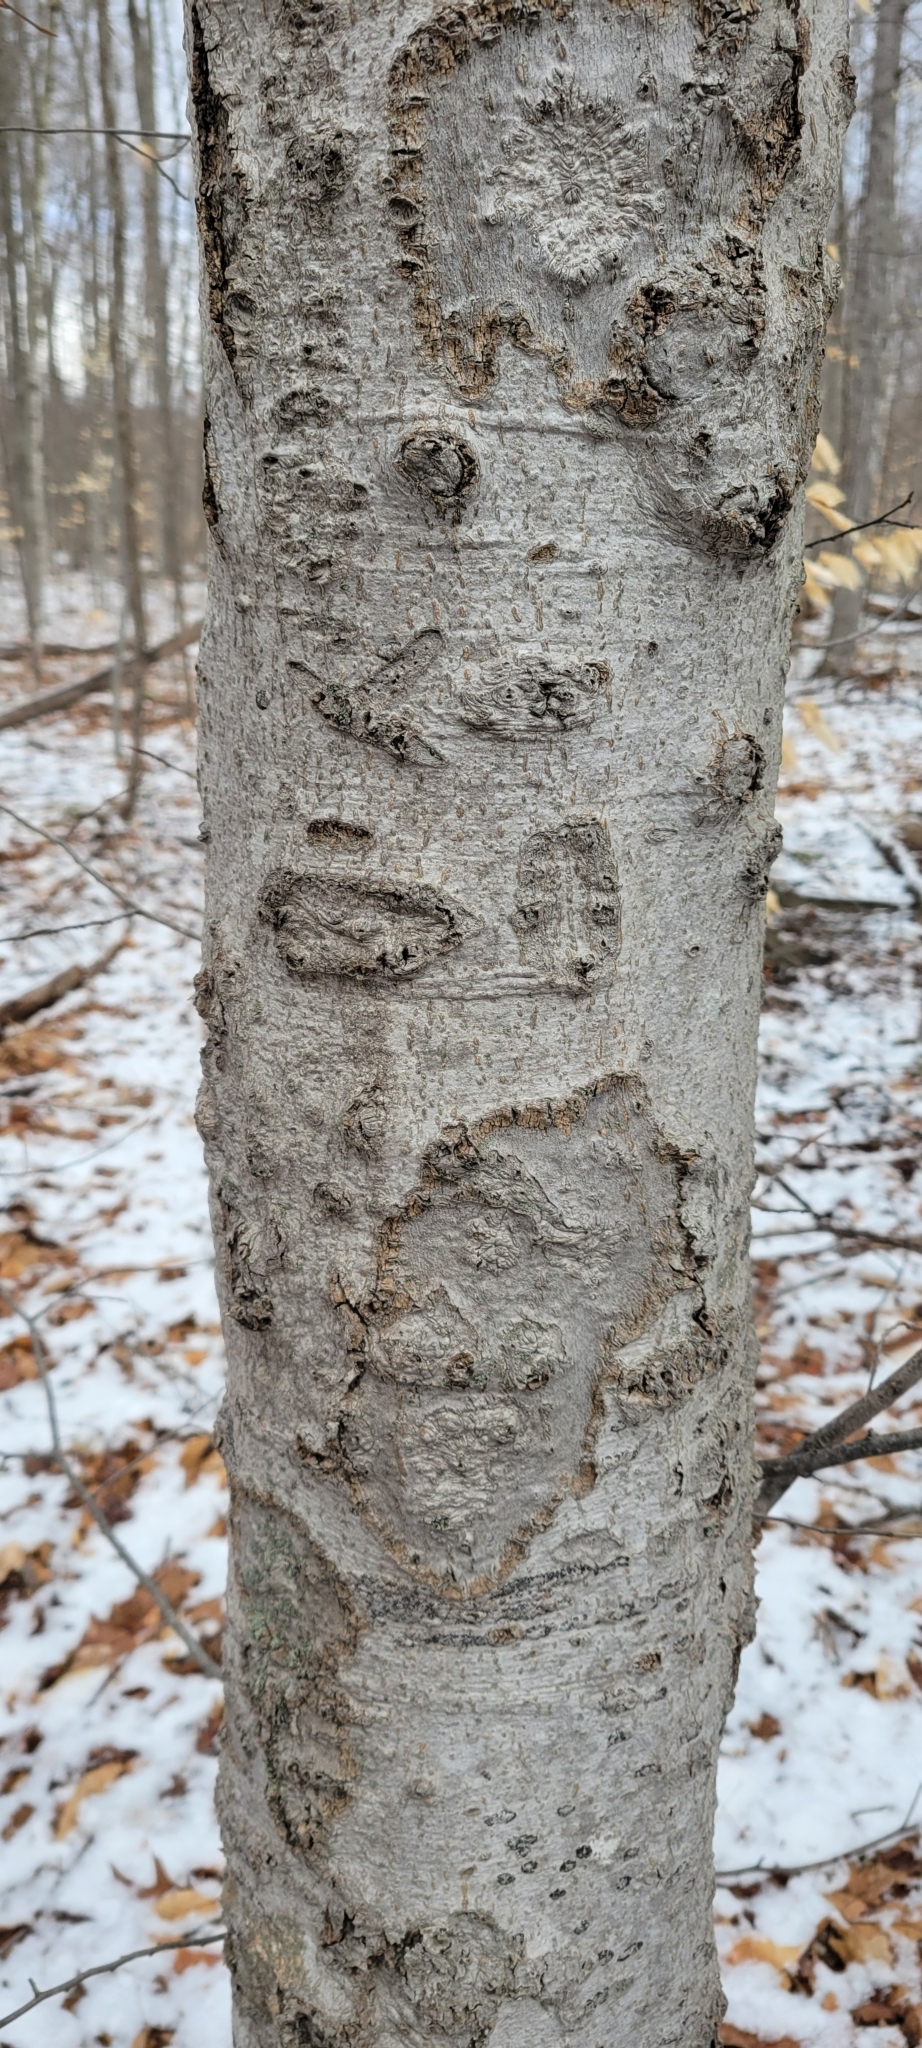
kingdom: Fungi
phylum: Ascomycota
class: Sordariomycetes
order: Hypocreales
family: Nectriaceae
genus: Neonectria
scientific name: Neonectria faginata
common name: Beech bark canker
